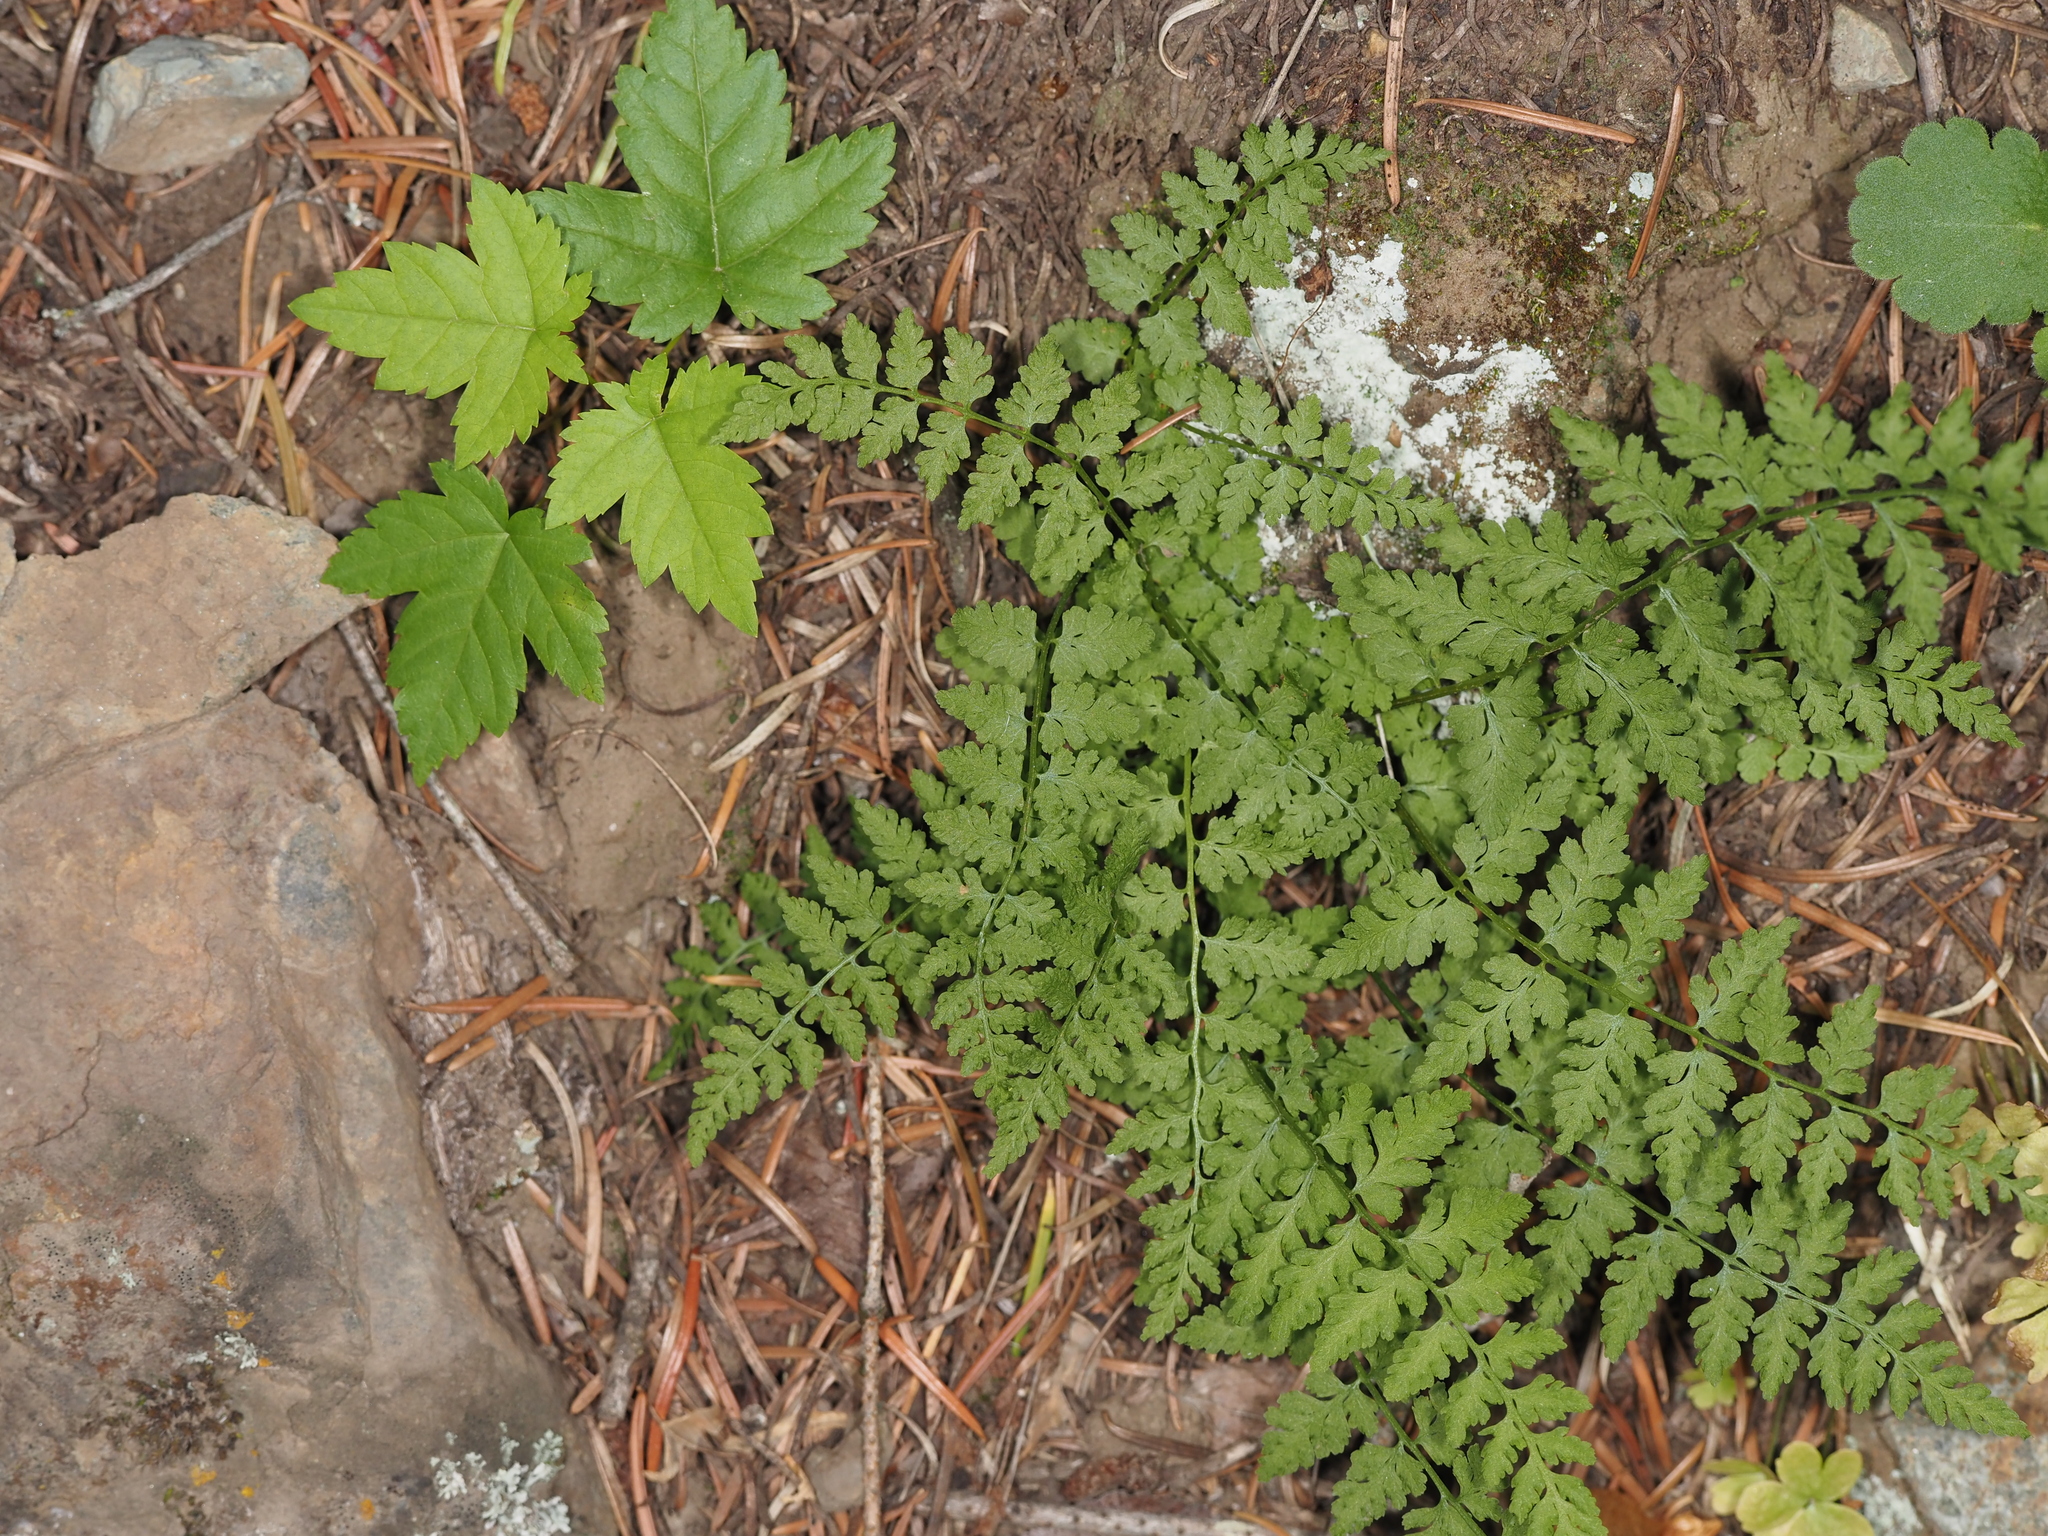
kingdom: Plantae
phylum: Tracheophyta
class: Polypodiopsida
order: Polypodiales
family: Cystopteridaceae
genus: Cystopteris
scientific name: Cystopteris fragilis
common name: Brittle bladder fern
